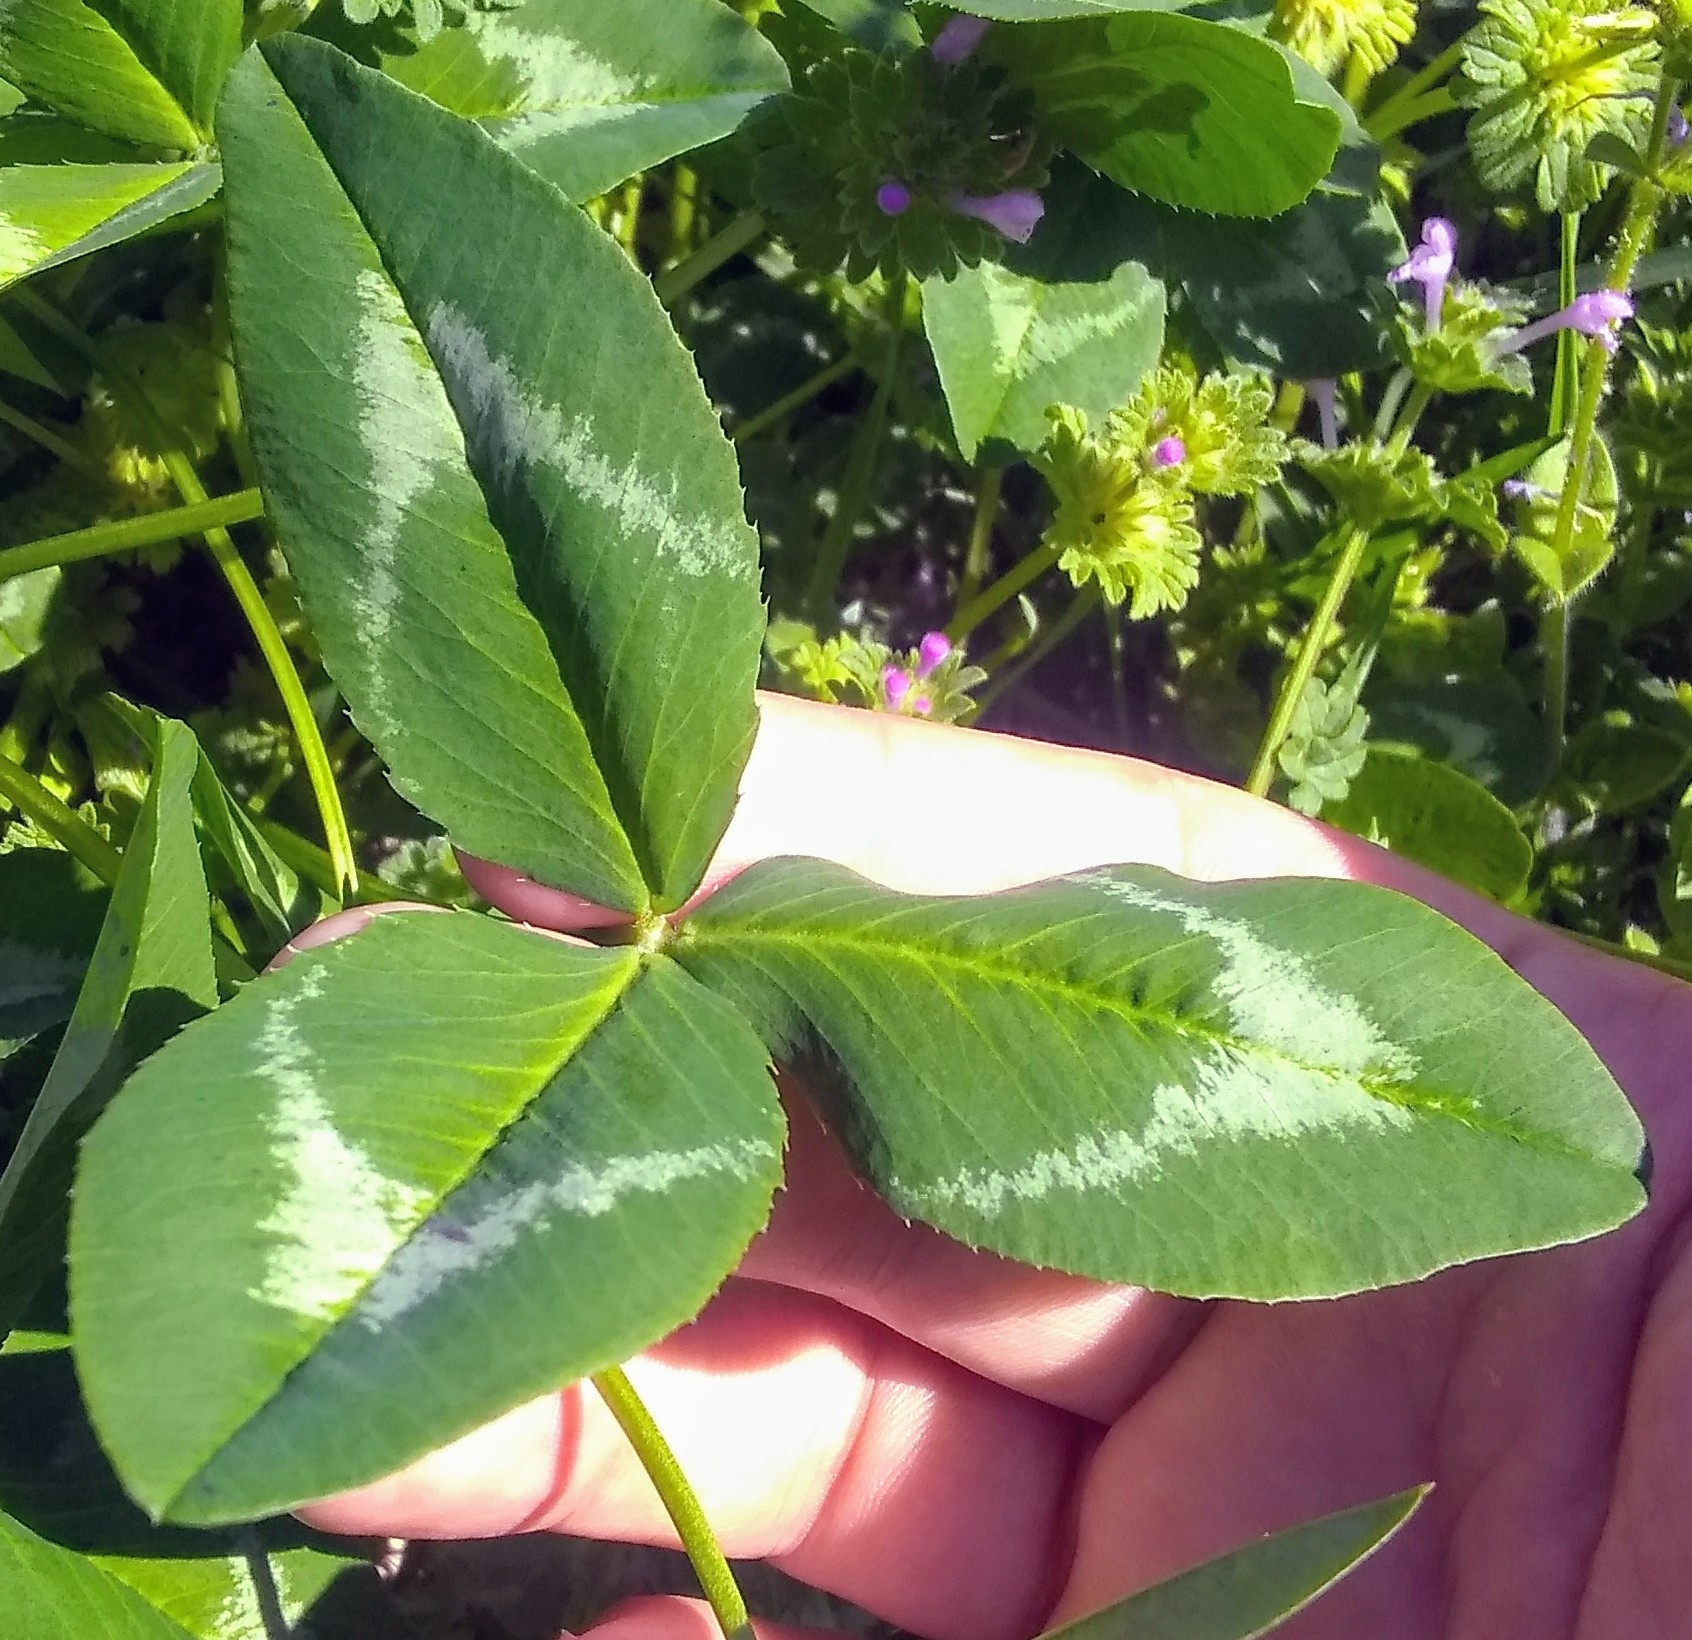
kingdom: Plantae
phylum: Tracheophyta
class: Magnoliopsida
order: Fabales
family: Fabaceae
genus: Trifolium
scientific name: Trifolium vesiculosum
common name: Arrowleaf clover
